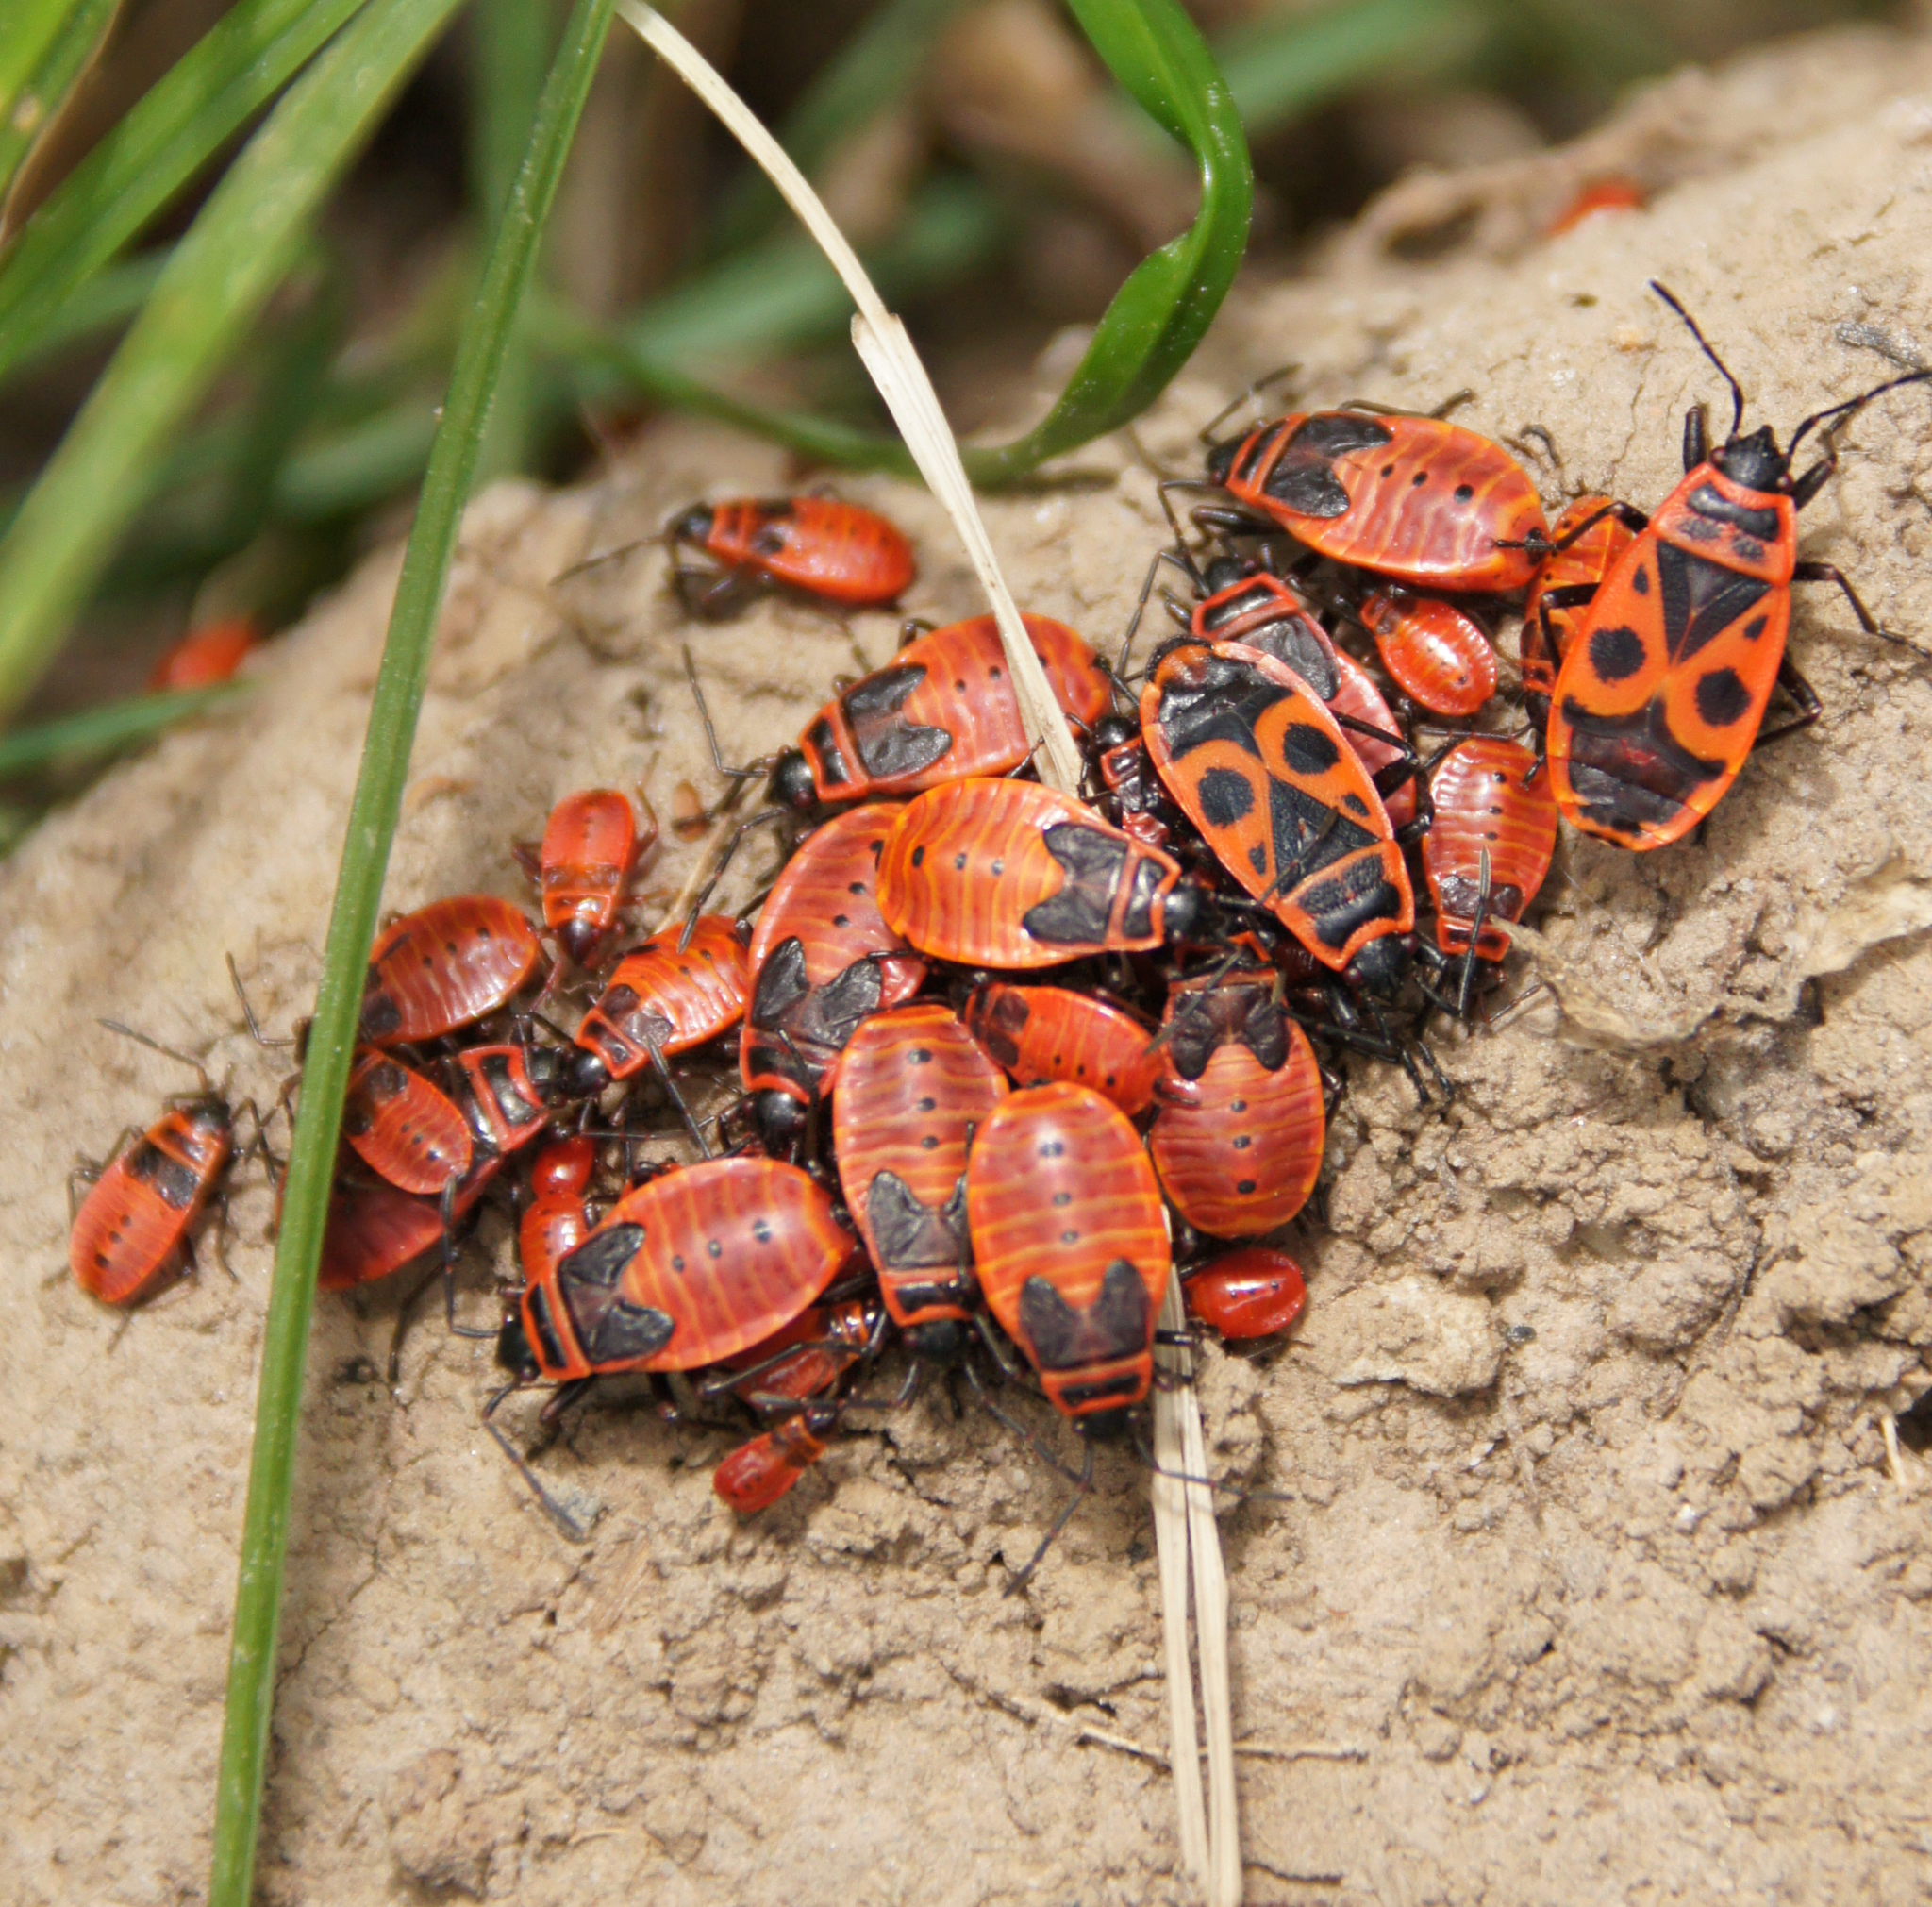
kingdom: Animalia
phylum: Arthropoda
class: Insecta
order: Hemiptera
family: Pyrrhocoridae
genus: Pyrrhocoris
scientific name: Pyrrhocoris apterus
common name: Firebug
